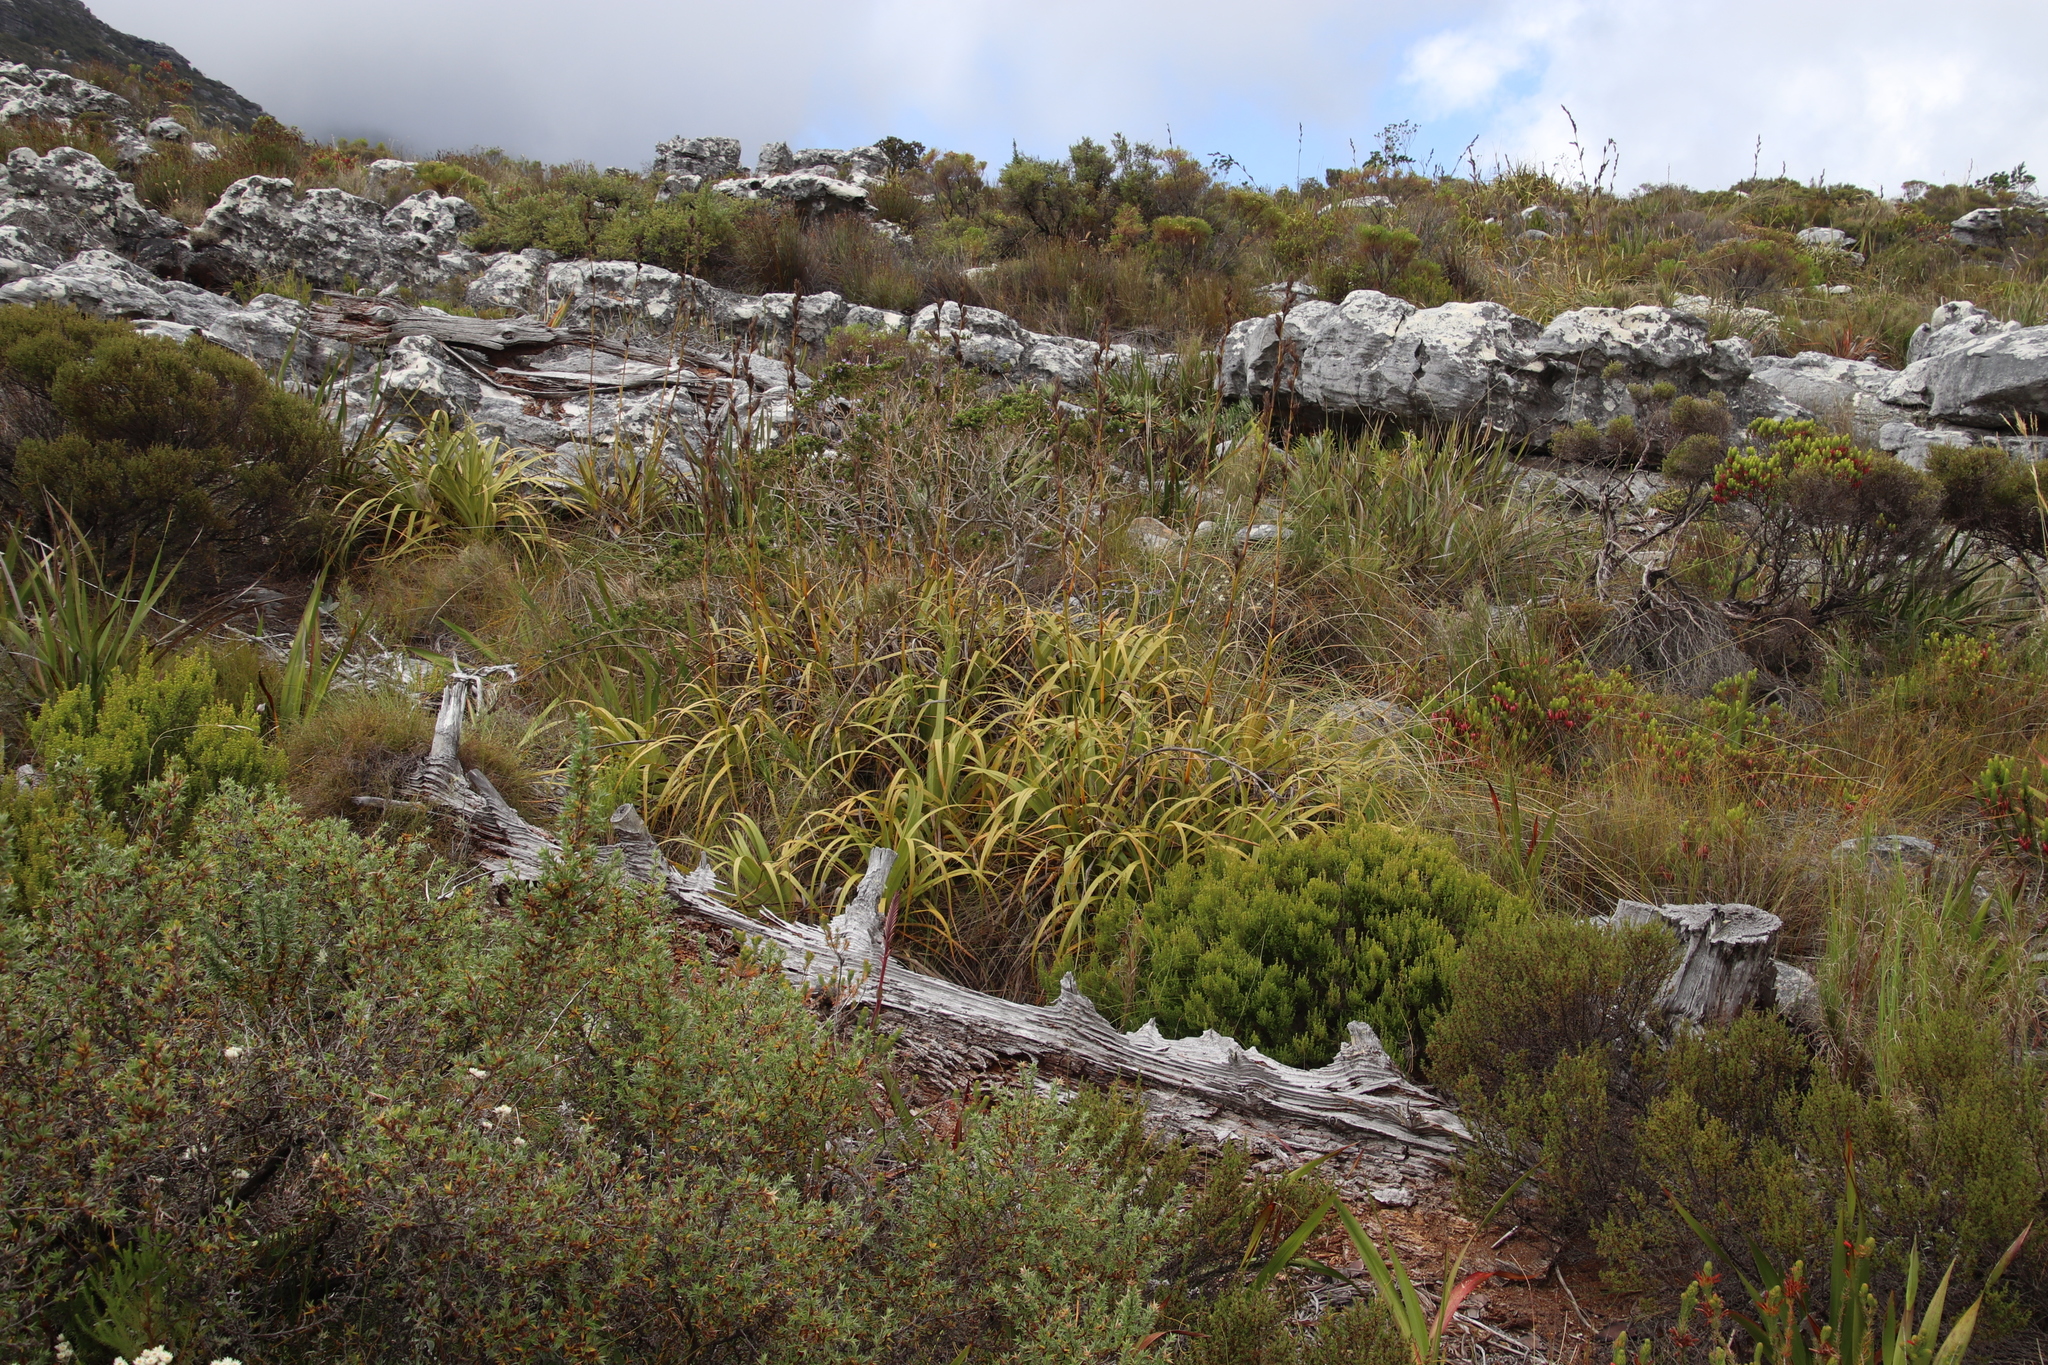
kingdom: Plantae
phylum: Tracheophyta
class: Liliopsida
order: Poales
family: Cyperaceae
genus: Tetraria
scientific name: Tetraria thermalis
